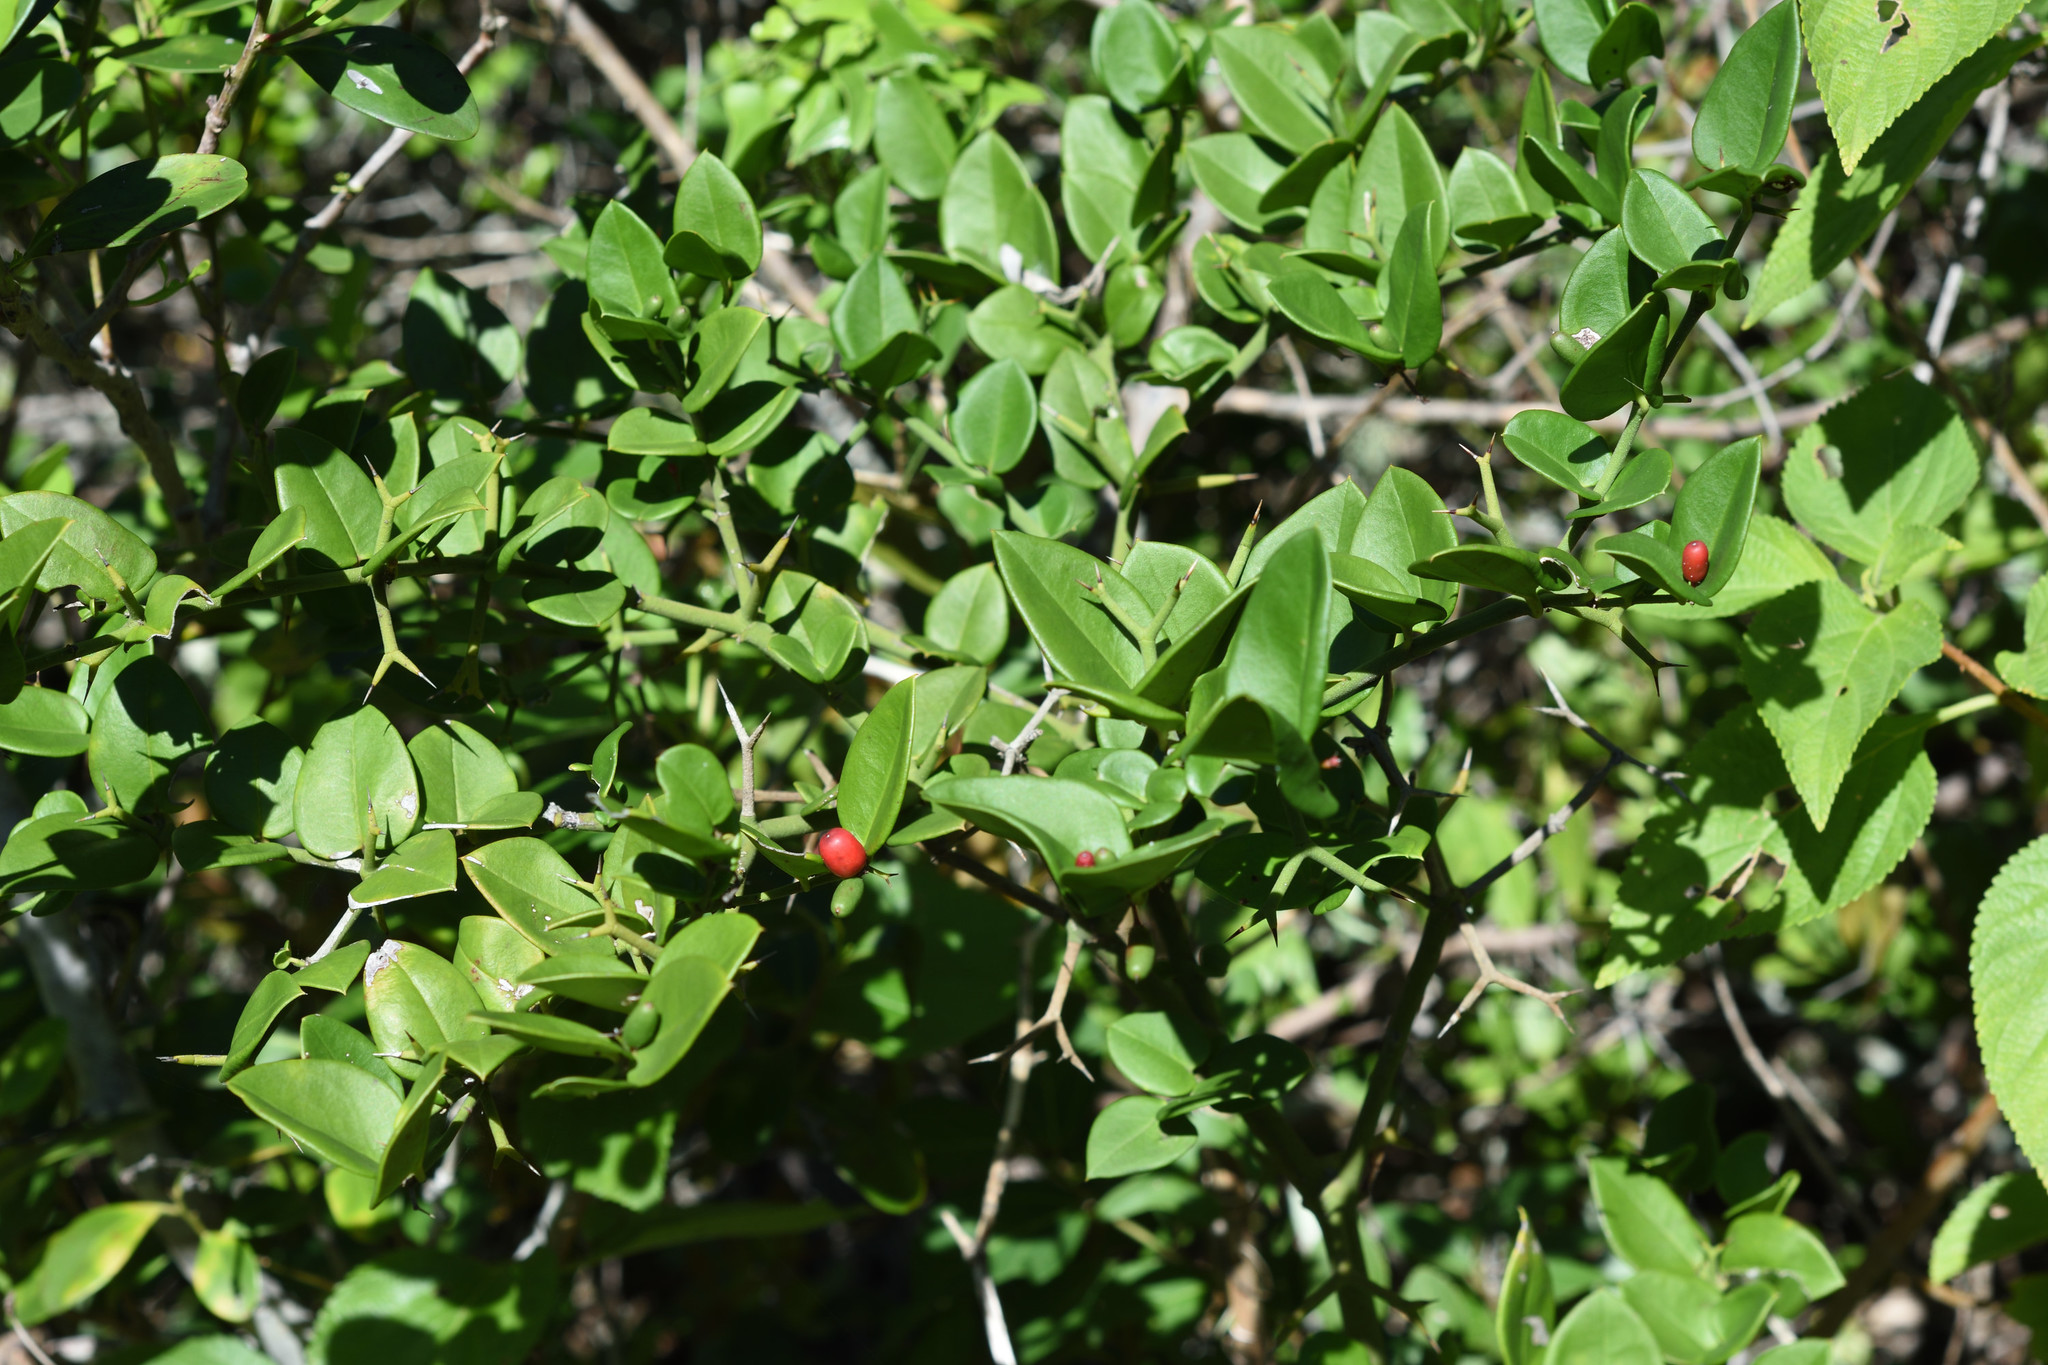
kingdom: Plantae
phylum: Tracheophyta
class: Magnoliopsida
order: Gentianales
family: Apocynaceae
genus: Carissa
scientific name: Carissa bispinosa
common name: Forest num-num
